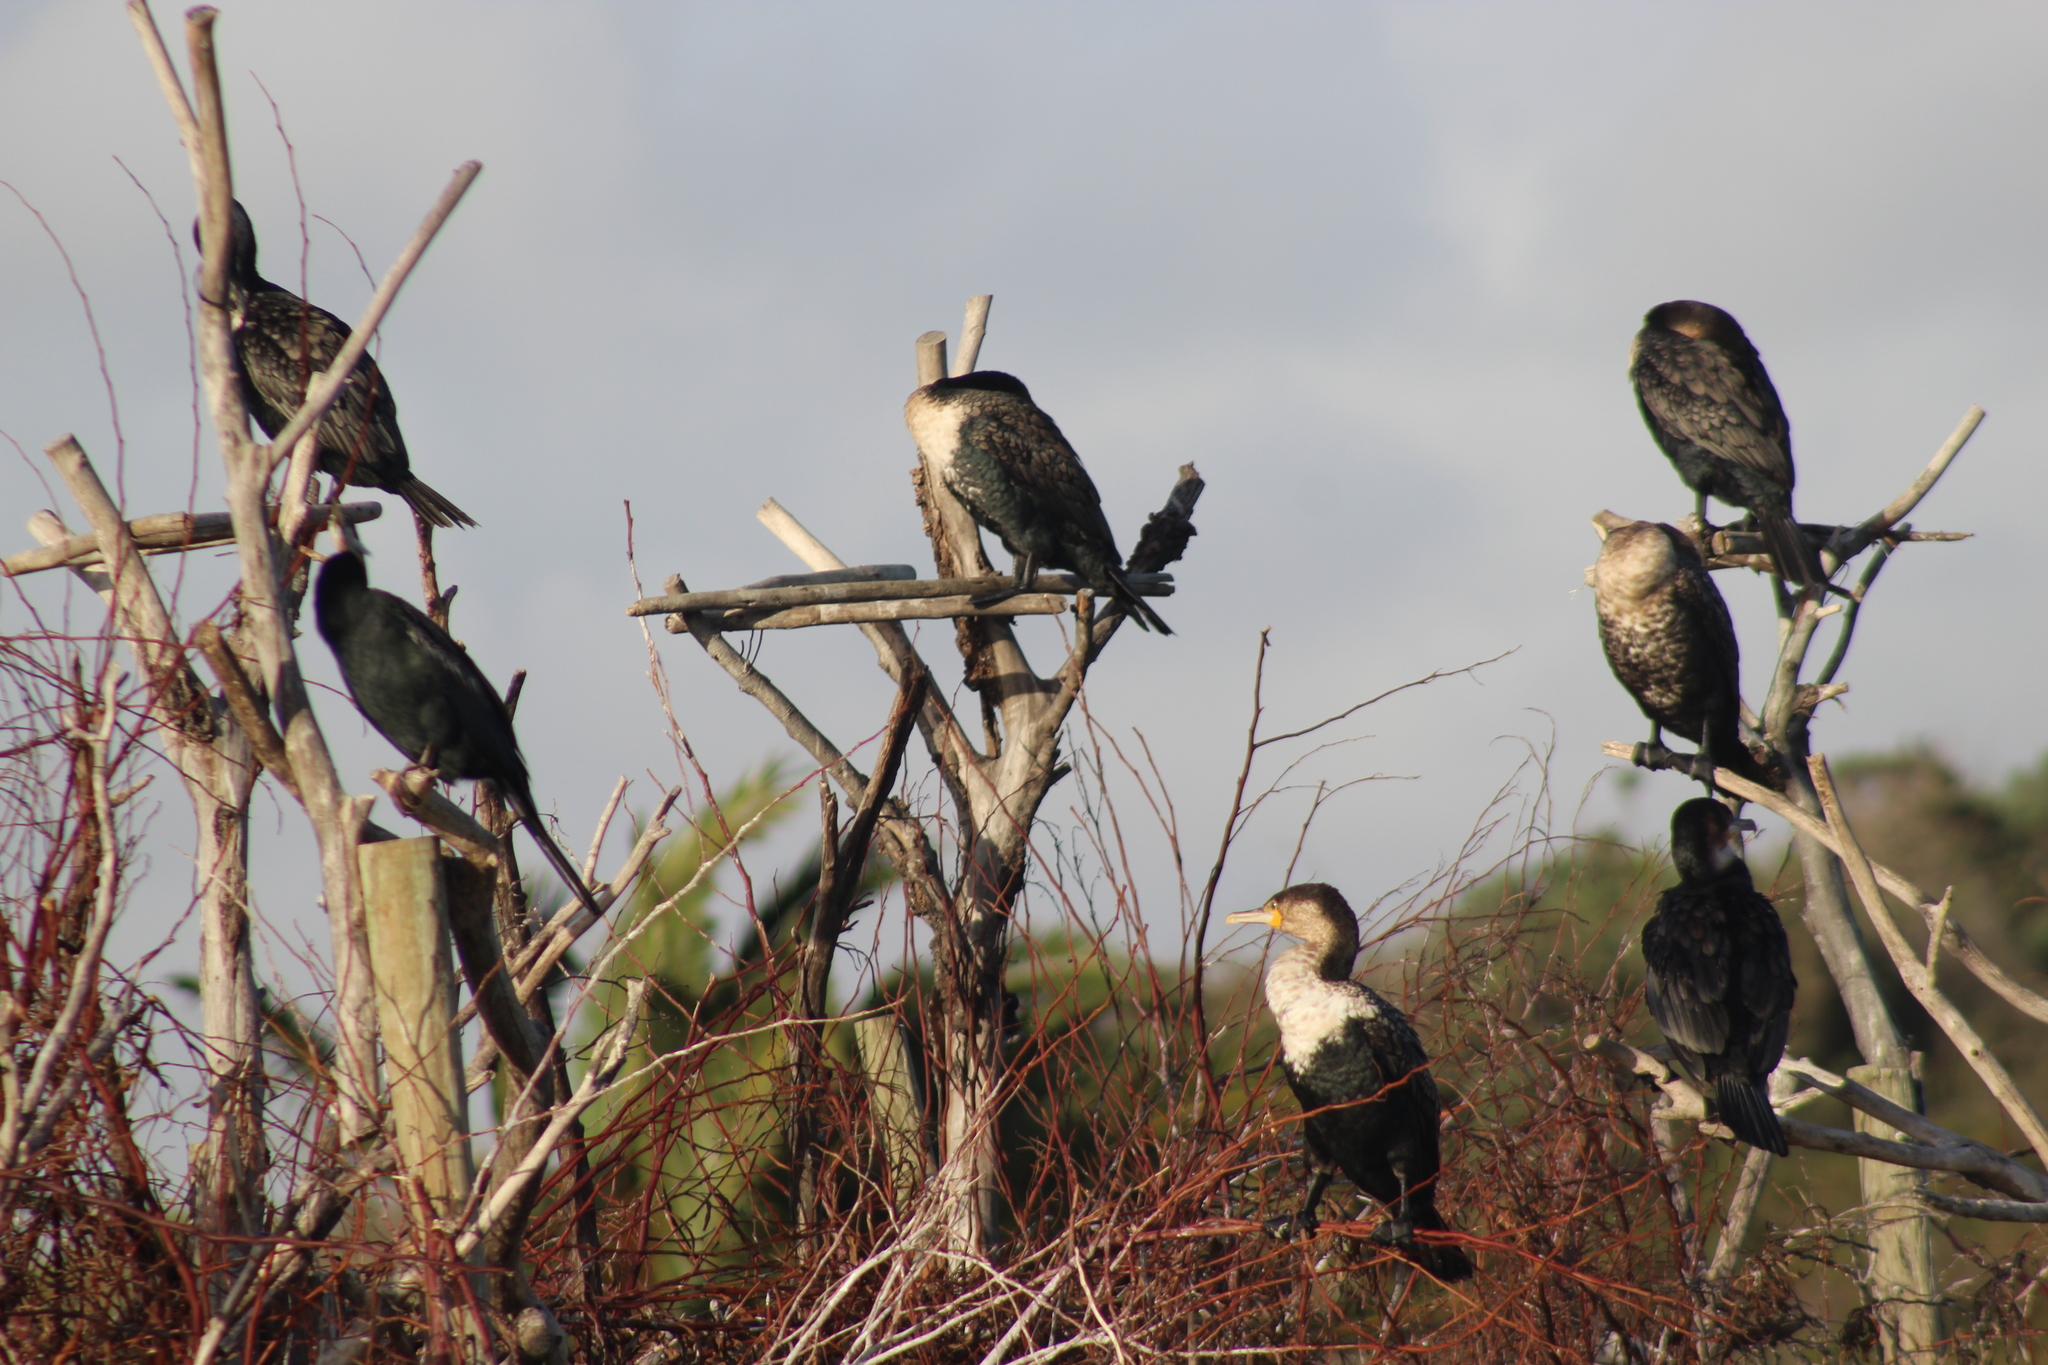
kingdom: Animalia
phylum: Chordata
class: Aves
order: Suliformes
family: Phalacrocoracidae
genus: Phalacrocorax
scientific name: Phalacrocorax carbo
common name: Great cormorant
